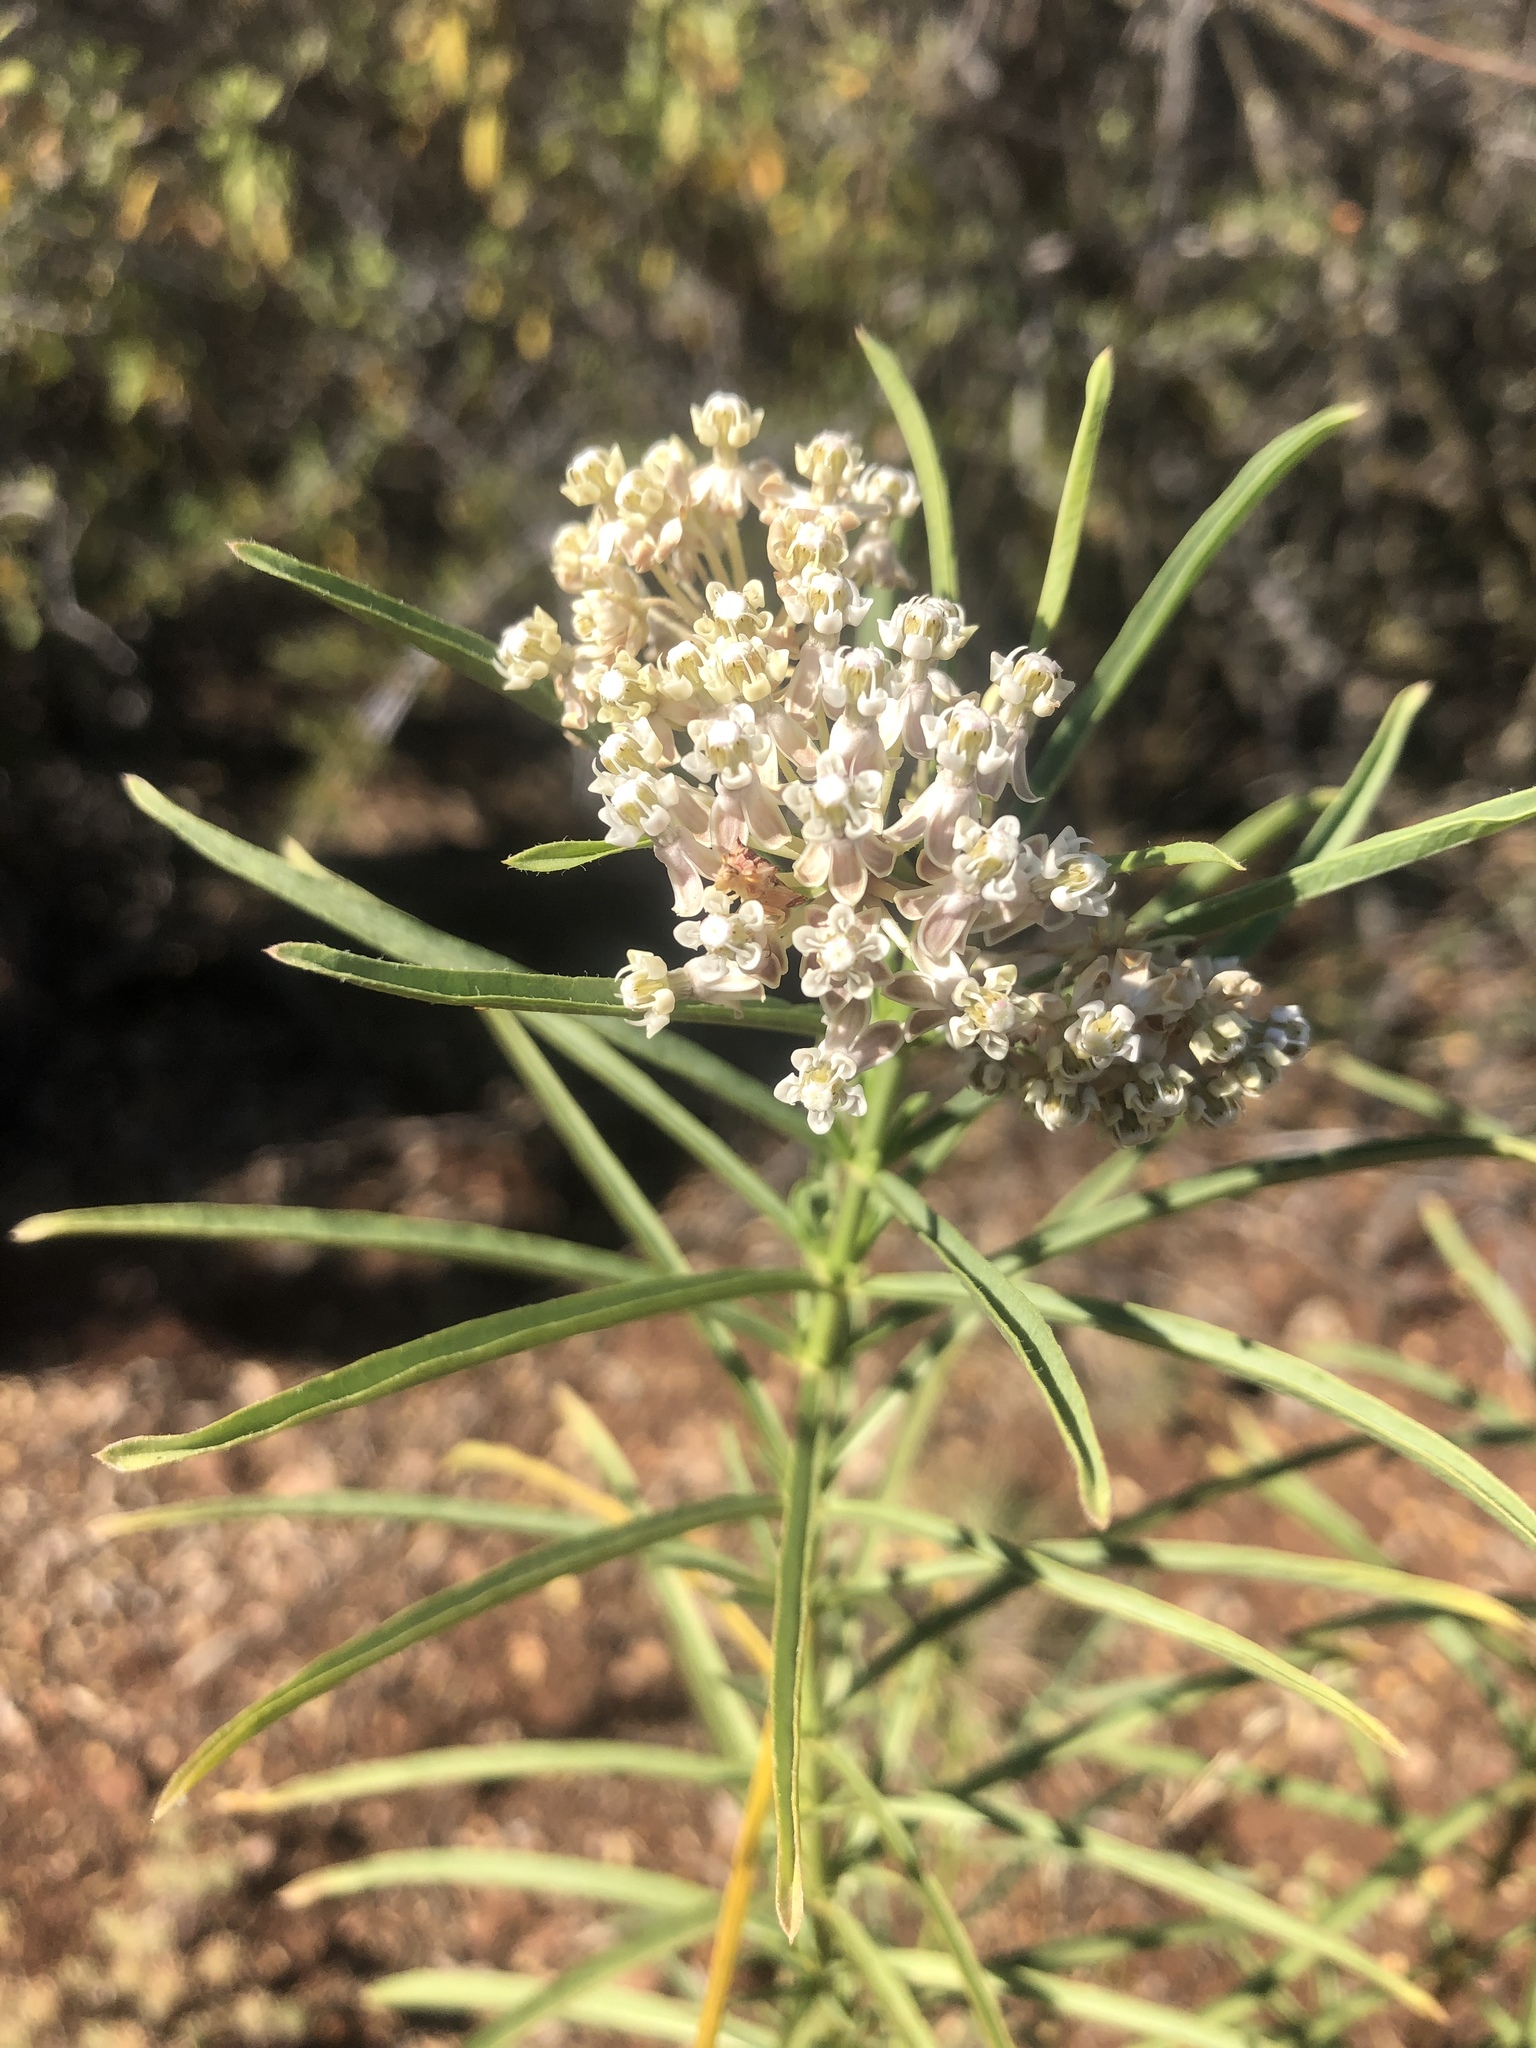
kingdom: Plantae
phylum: Tracheophyta
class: Magnoliopsida
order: Gentianales
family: Apocynaceae
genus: Asclepias
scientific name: Asclepias fascicularis
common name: Mexican milkweed
